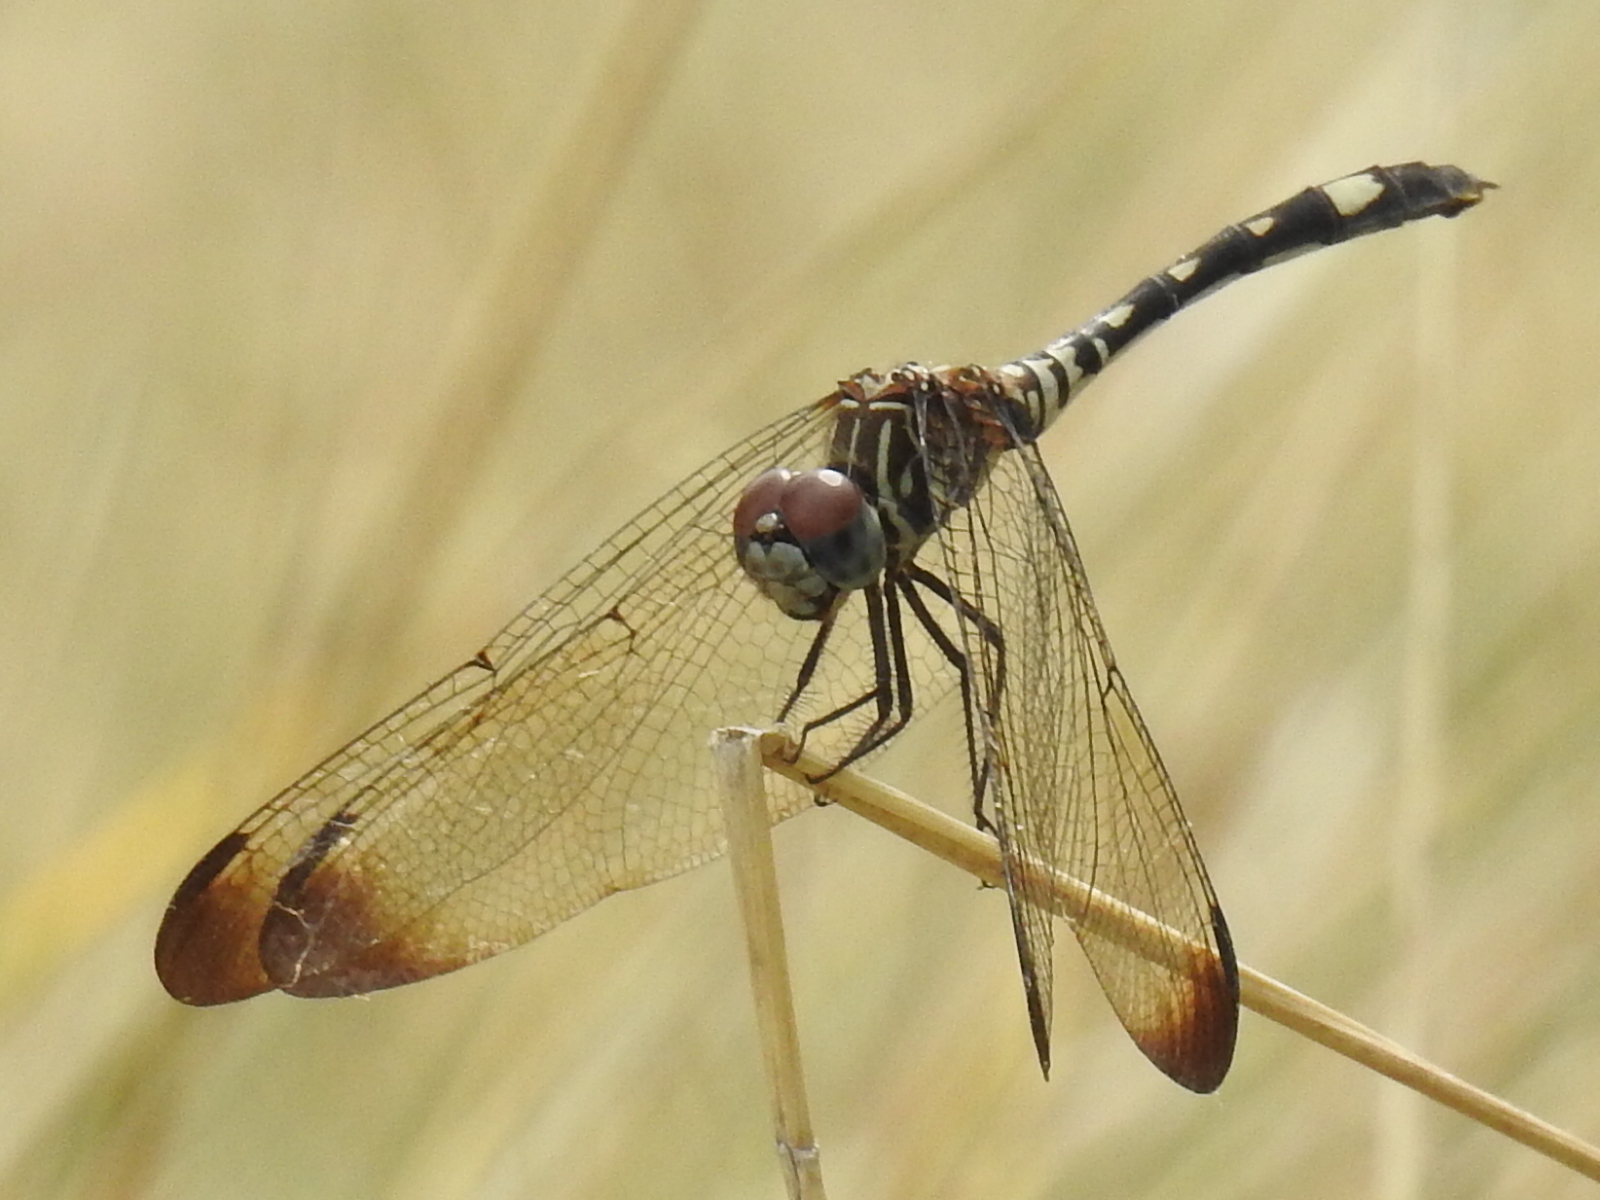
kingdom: Animalia
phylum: Arthropoda
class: Insecta
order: Odonata
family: Libellulidae
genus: Dythemis
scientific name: Dythemis velox
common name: Swift setwing
